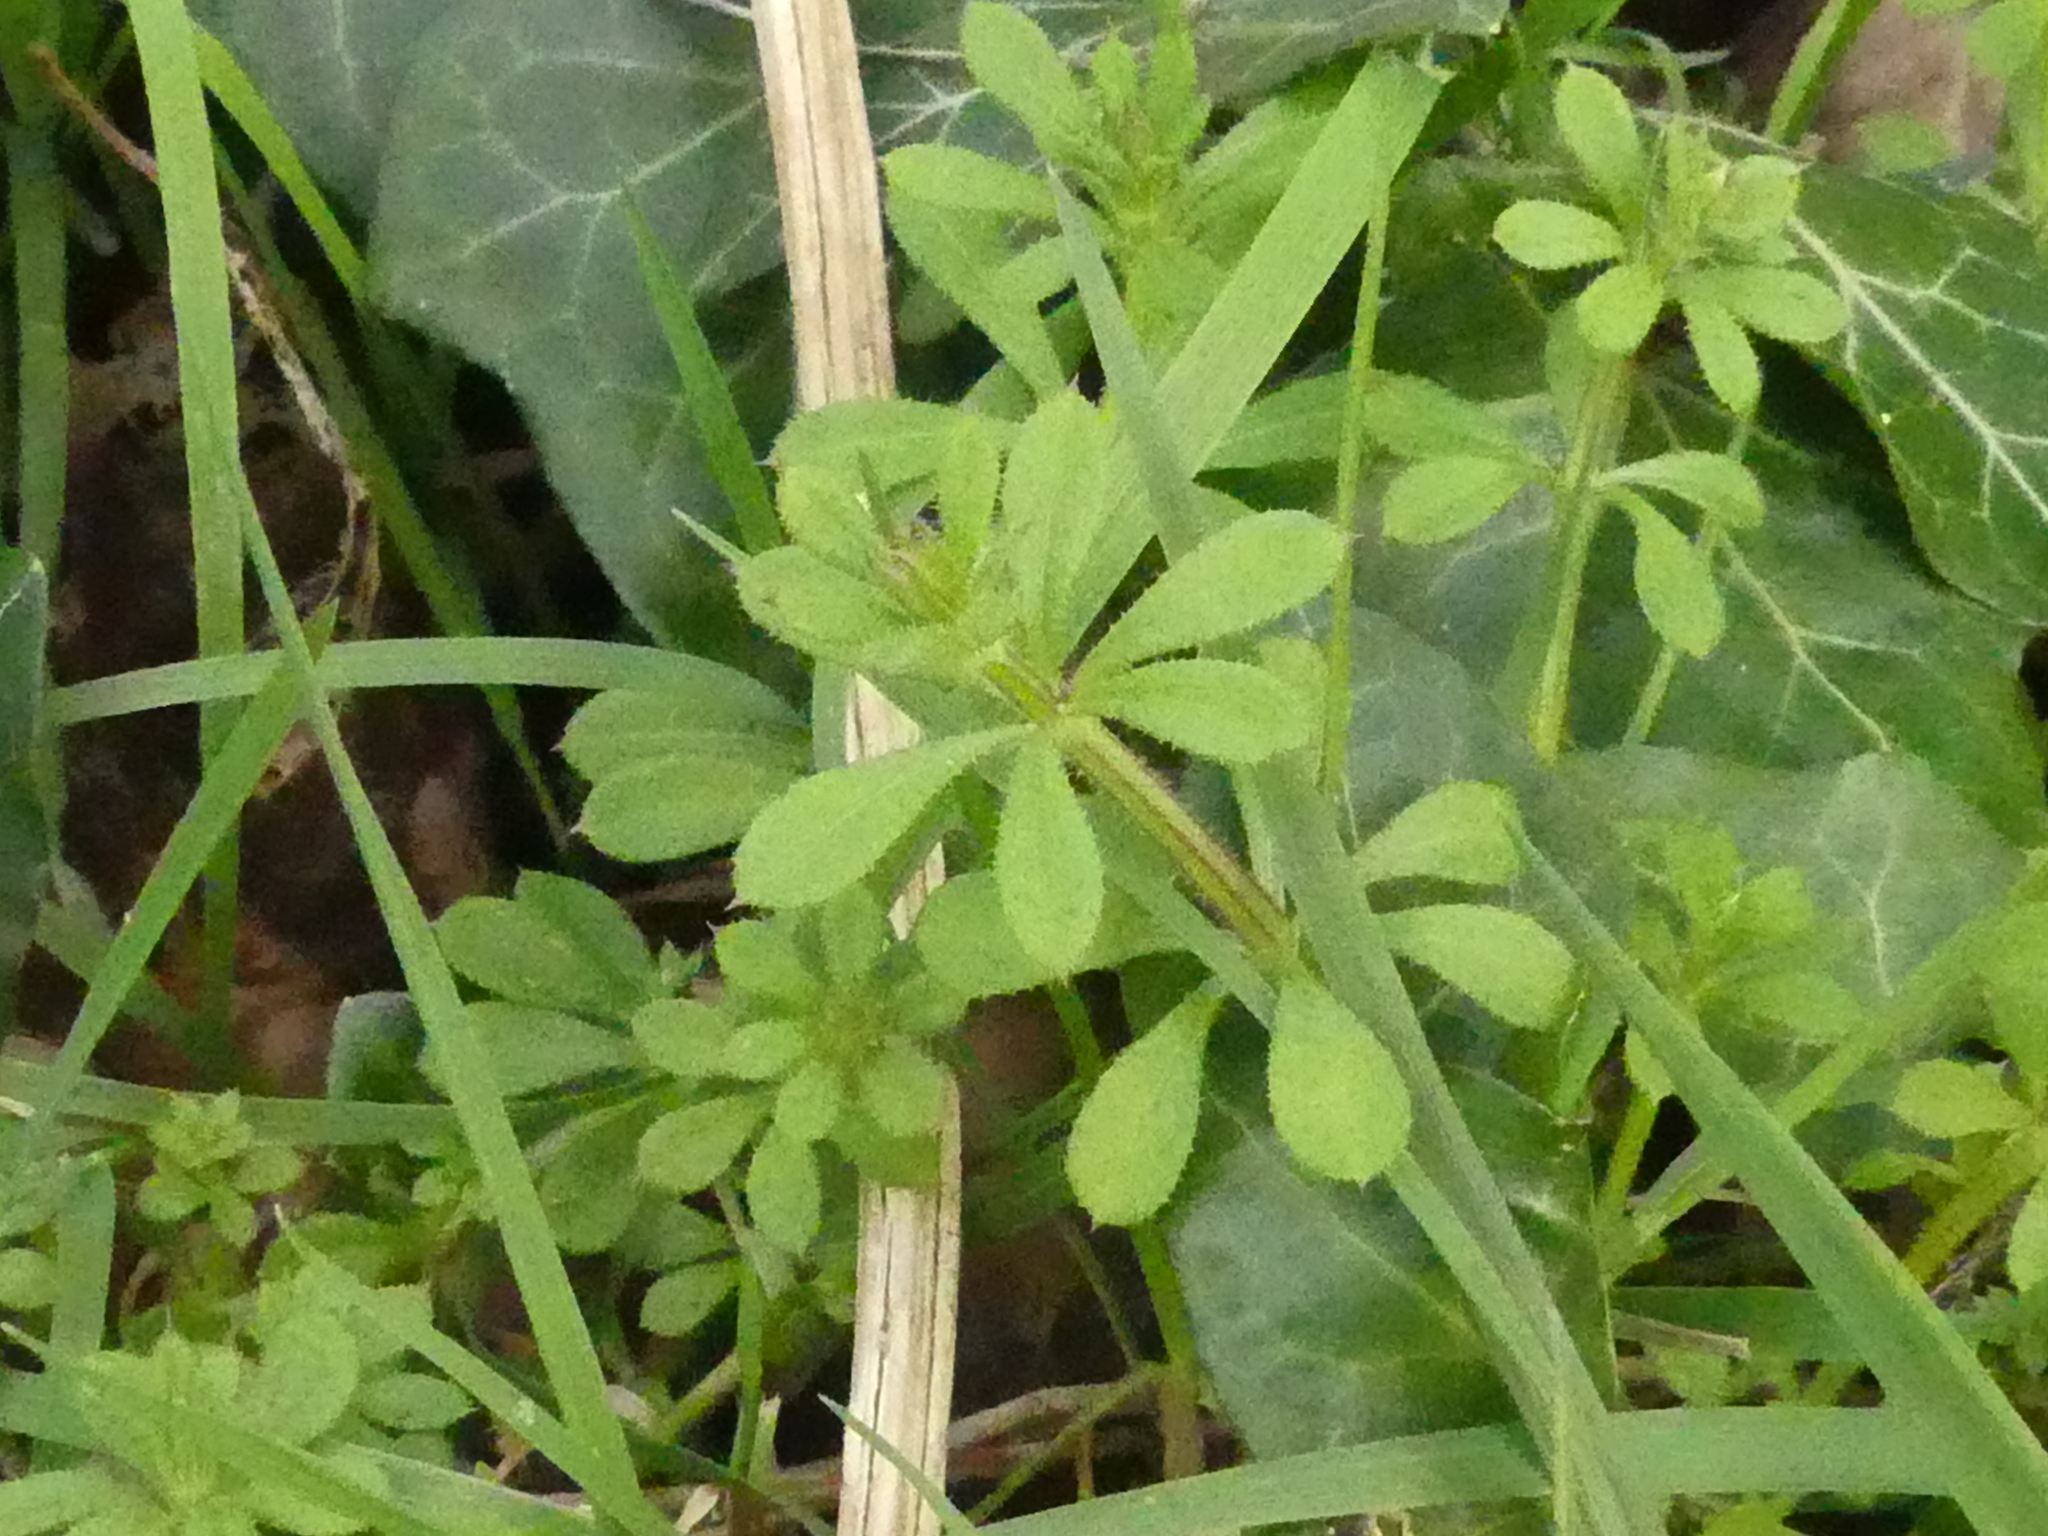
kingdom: Plantae
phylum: Tracheophyta
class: Magnoliopsida
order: Gentianales
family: Rubiaceae
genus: Galium
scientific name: Galium aparine
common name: Cleavers
